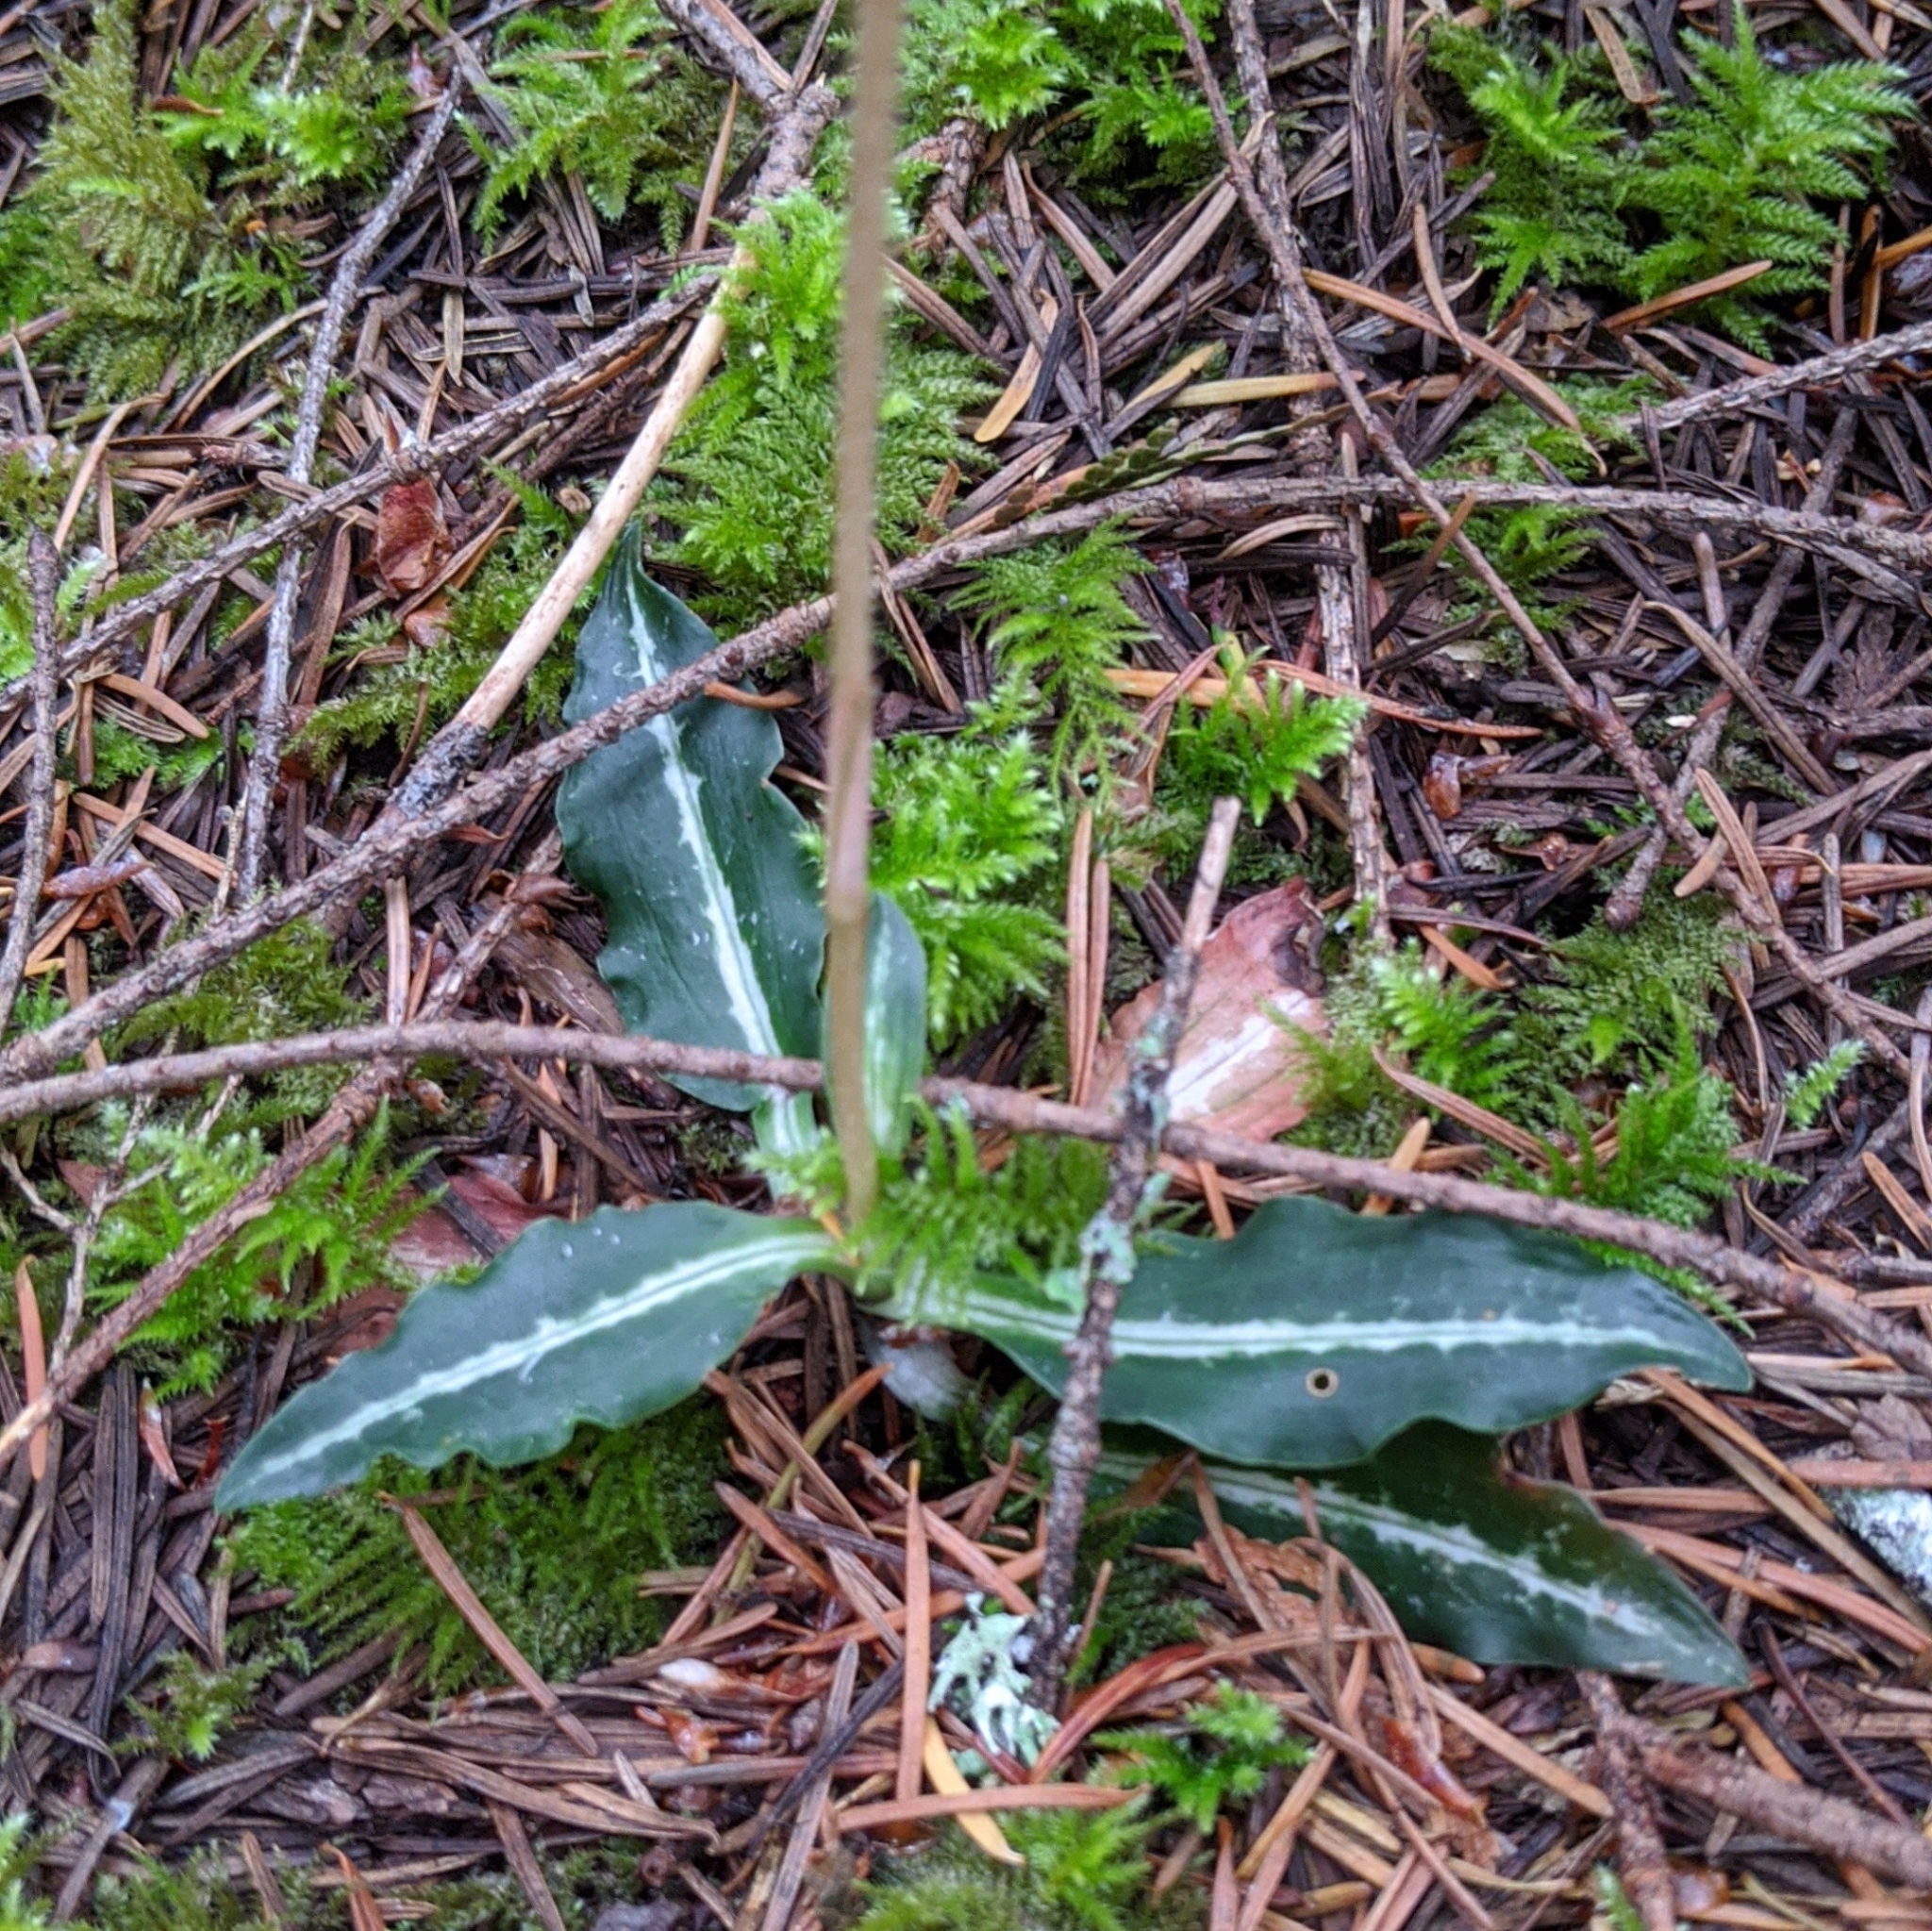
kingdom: Plantae
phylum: Tracheophyta
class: Liliopsida
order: Asparagales
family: Orchidaceae
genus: Goodyera
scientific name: Goodyera oblongifolia
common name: Giant rattlesnake-plantain
